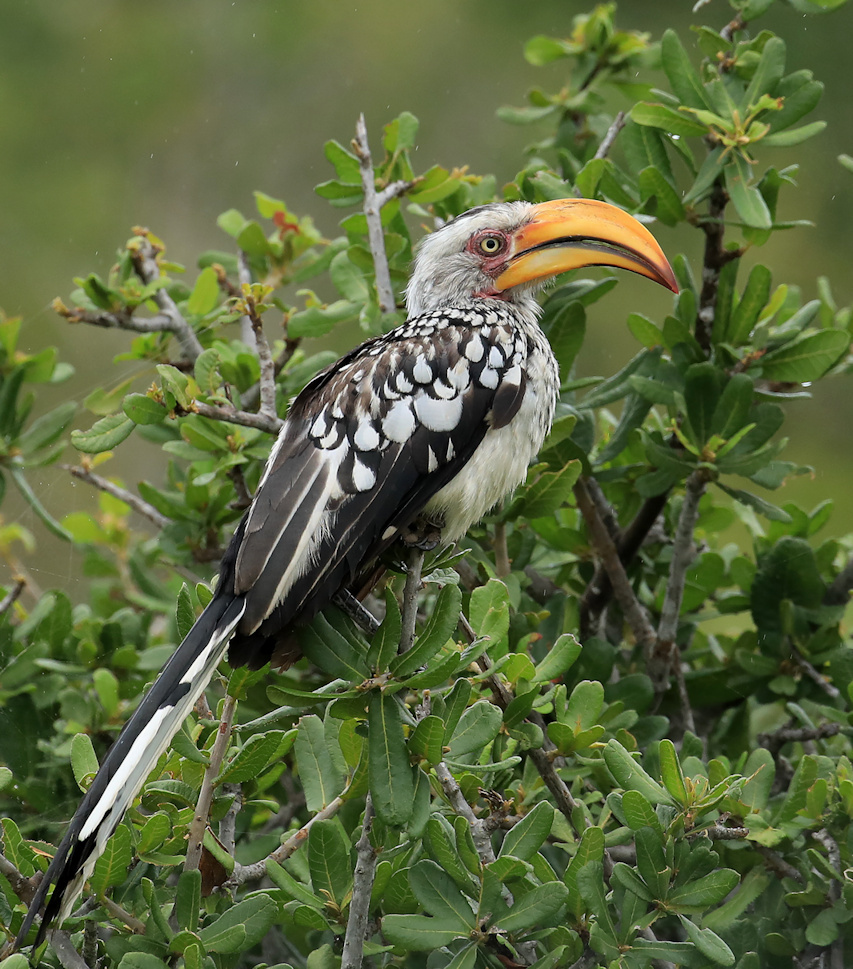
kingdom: Animalia
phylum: Chordata
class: Aves
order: Bucerotiformes
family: Bucerotidae
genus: Tockus
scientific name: Tockus leucomelas
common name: Southern yellow-billed hornbill
